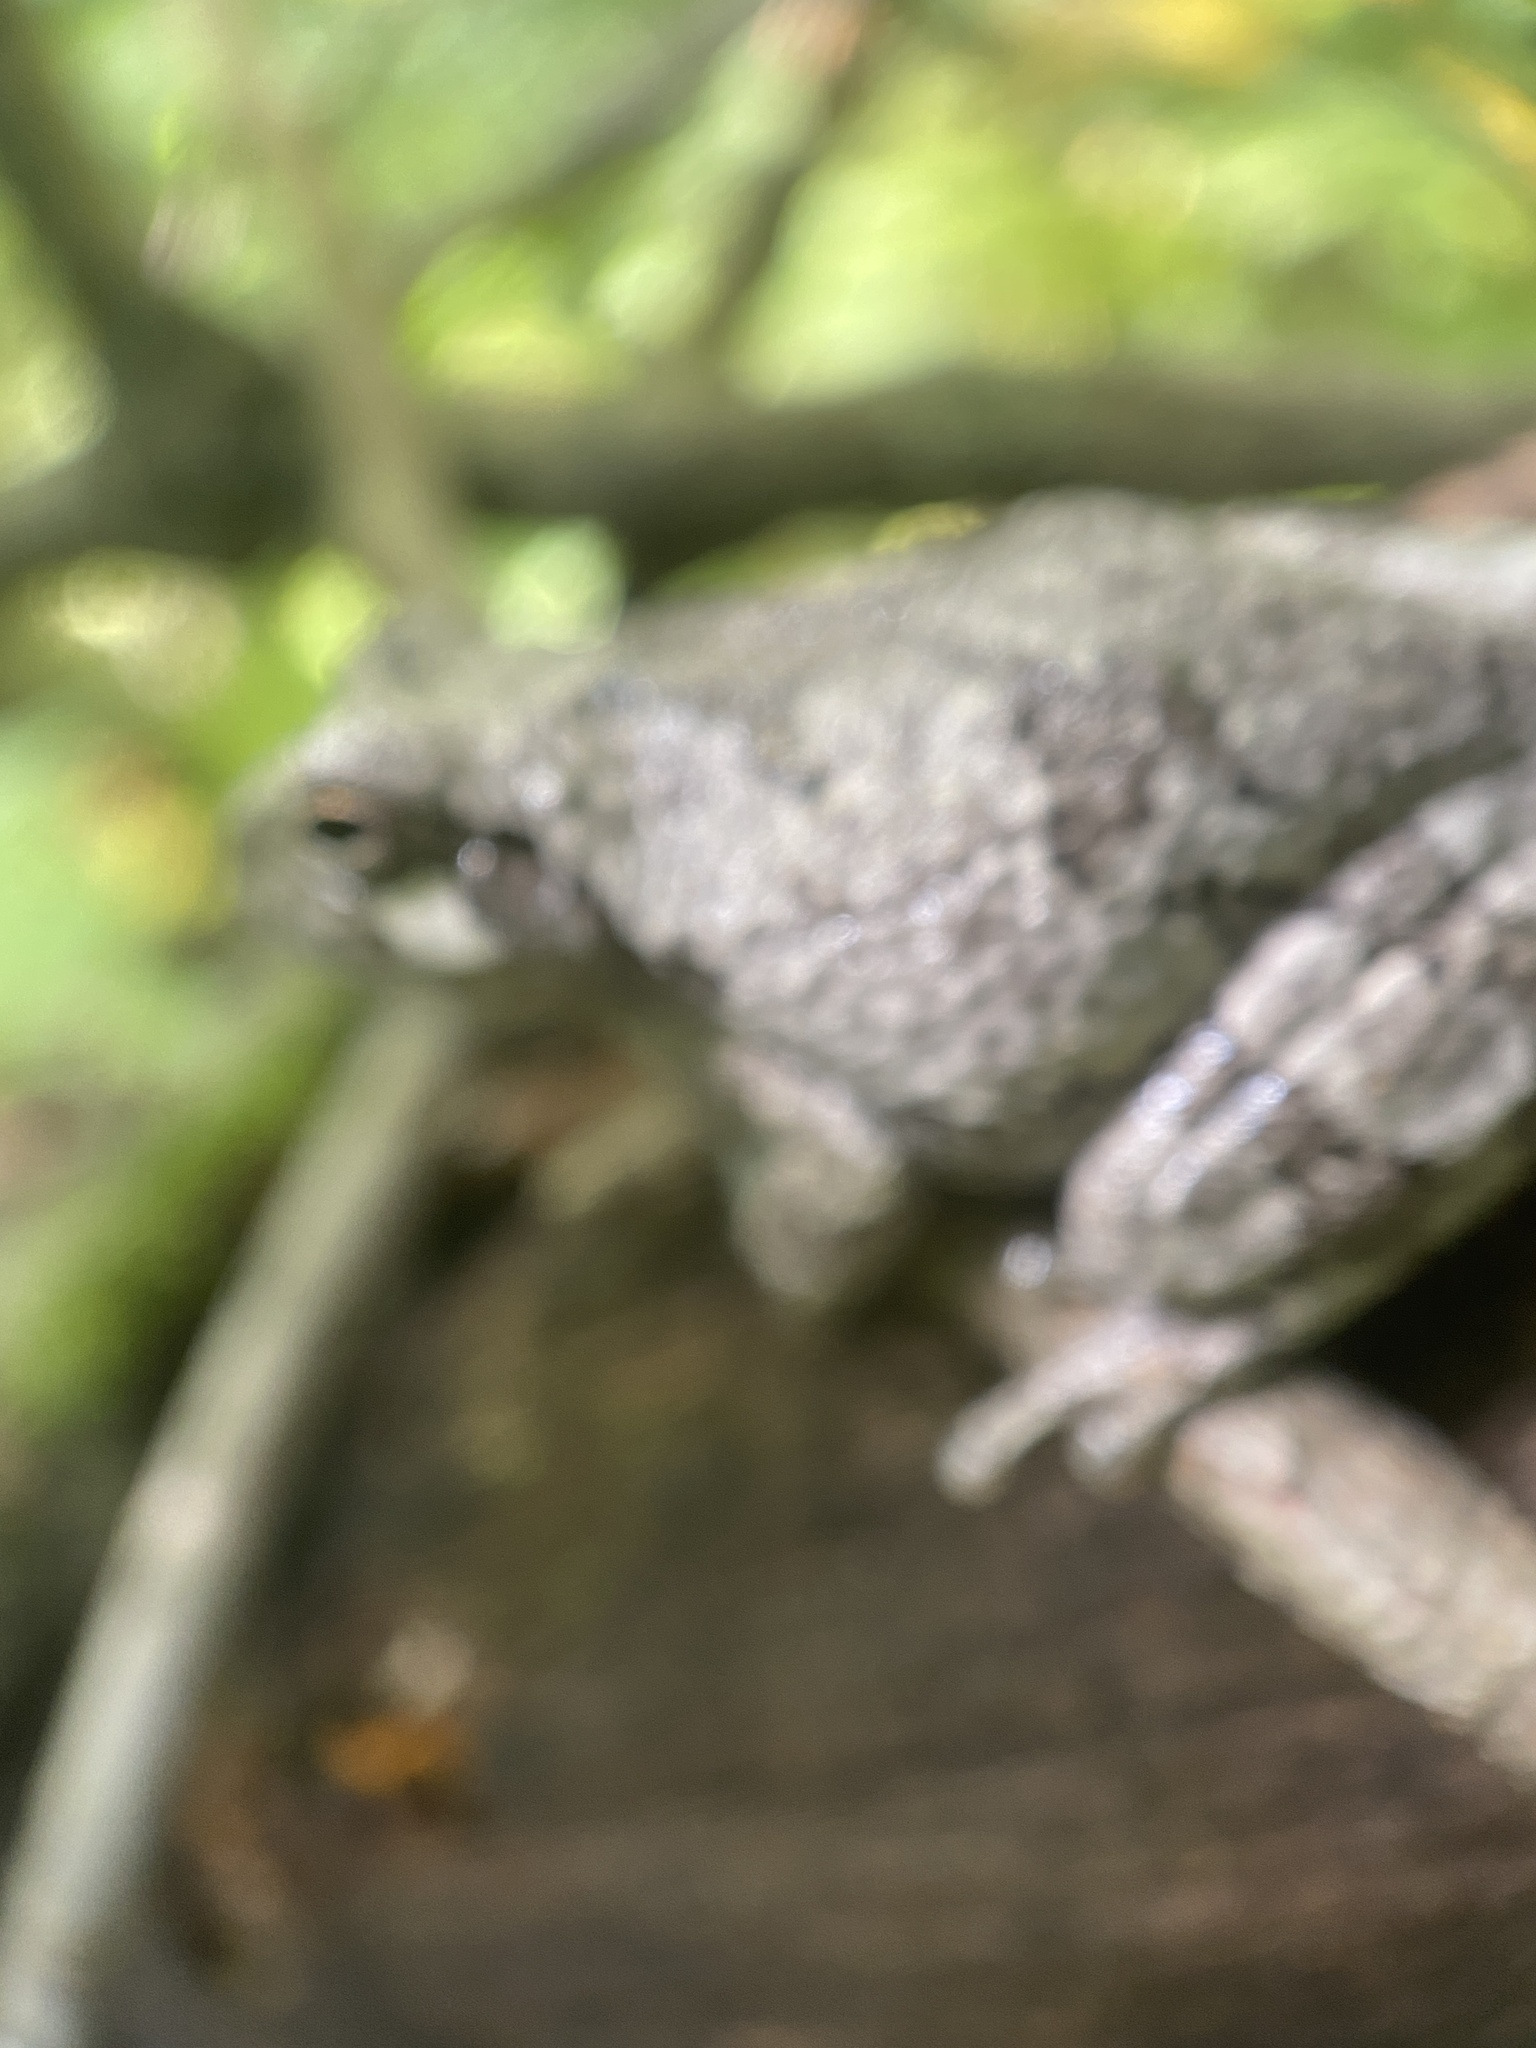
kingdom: Animalia
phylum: Chordata
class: Amphibia
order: Anura
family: Hylidae
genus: Hyla
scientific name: Hyla
